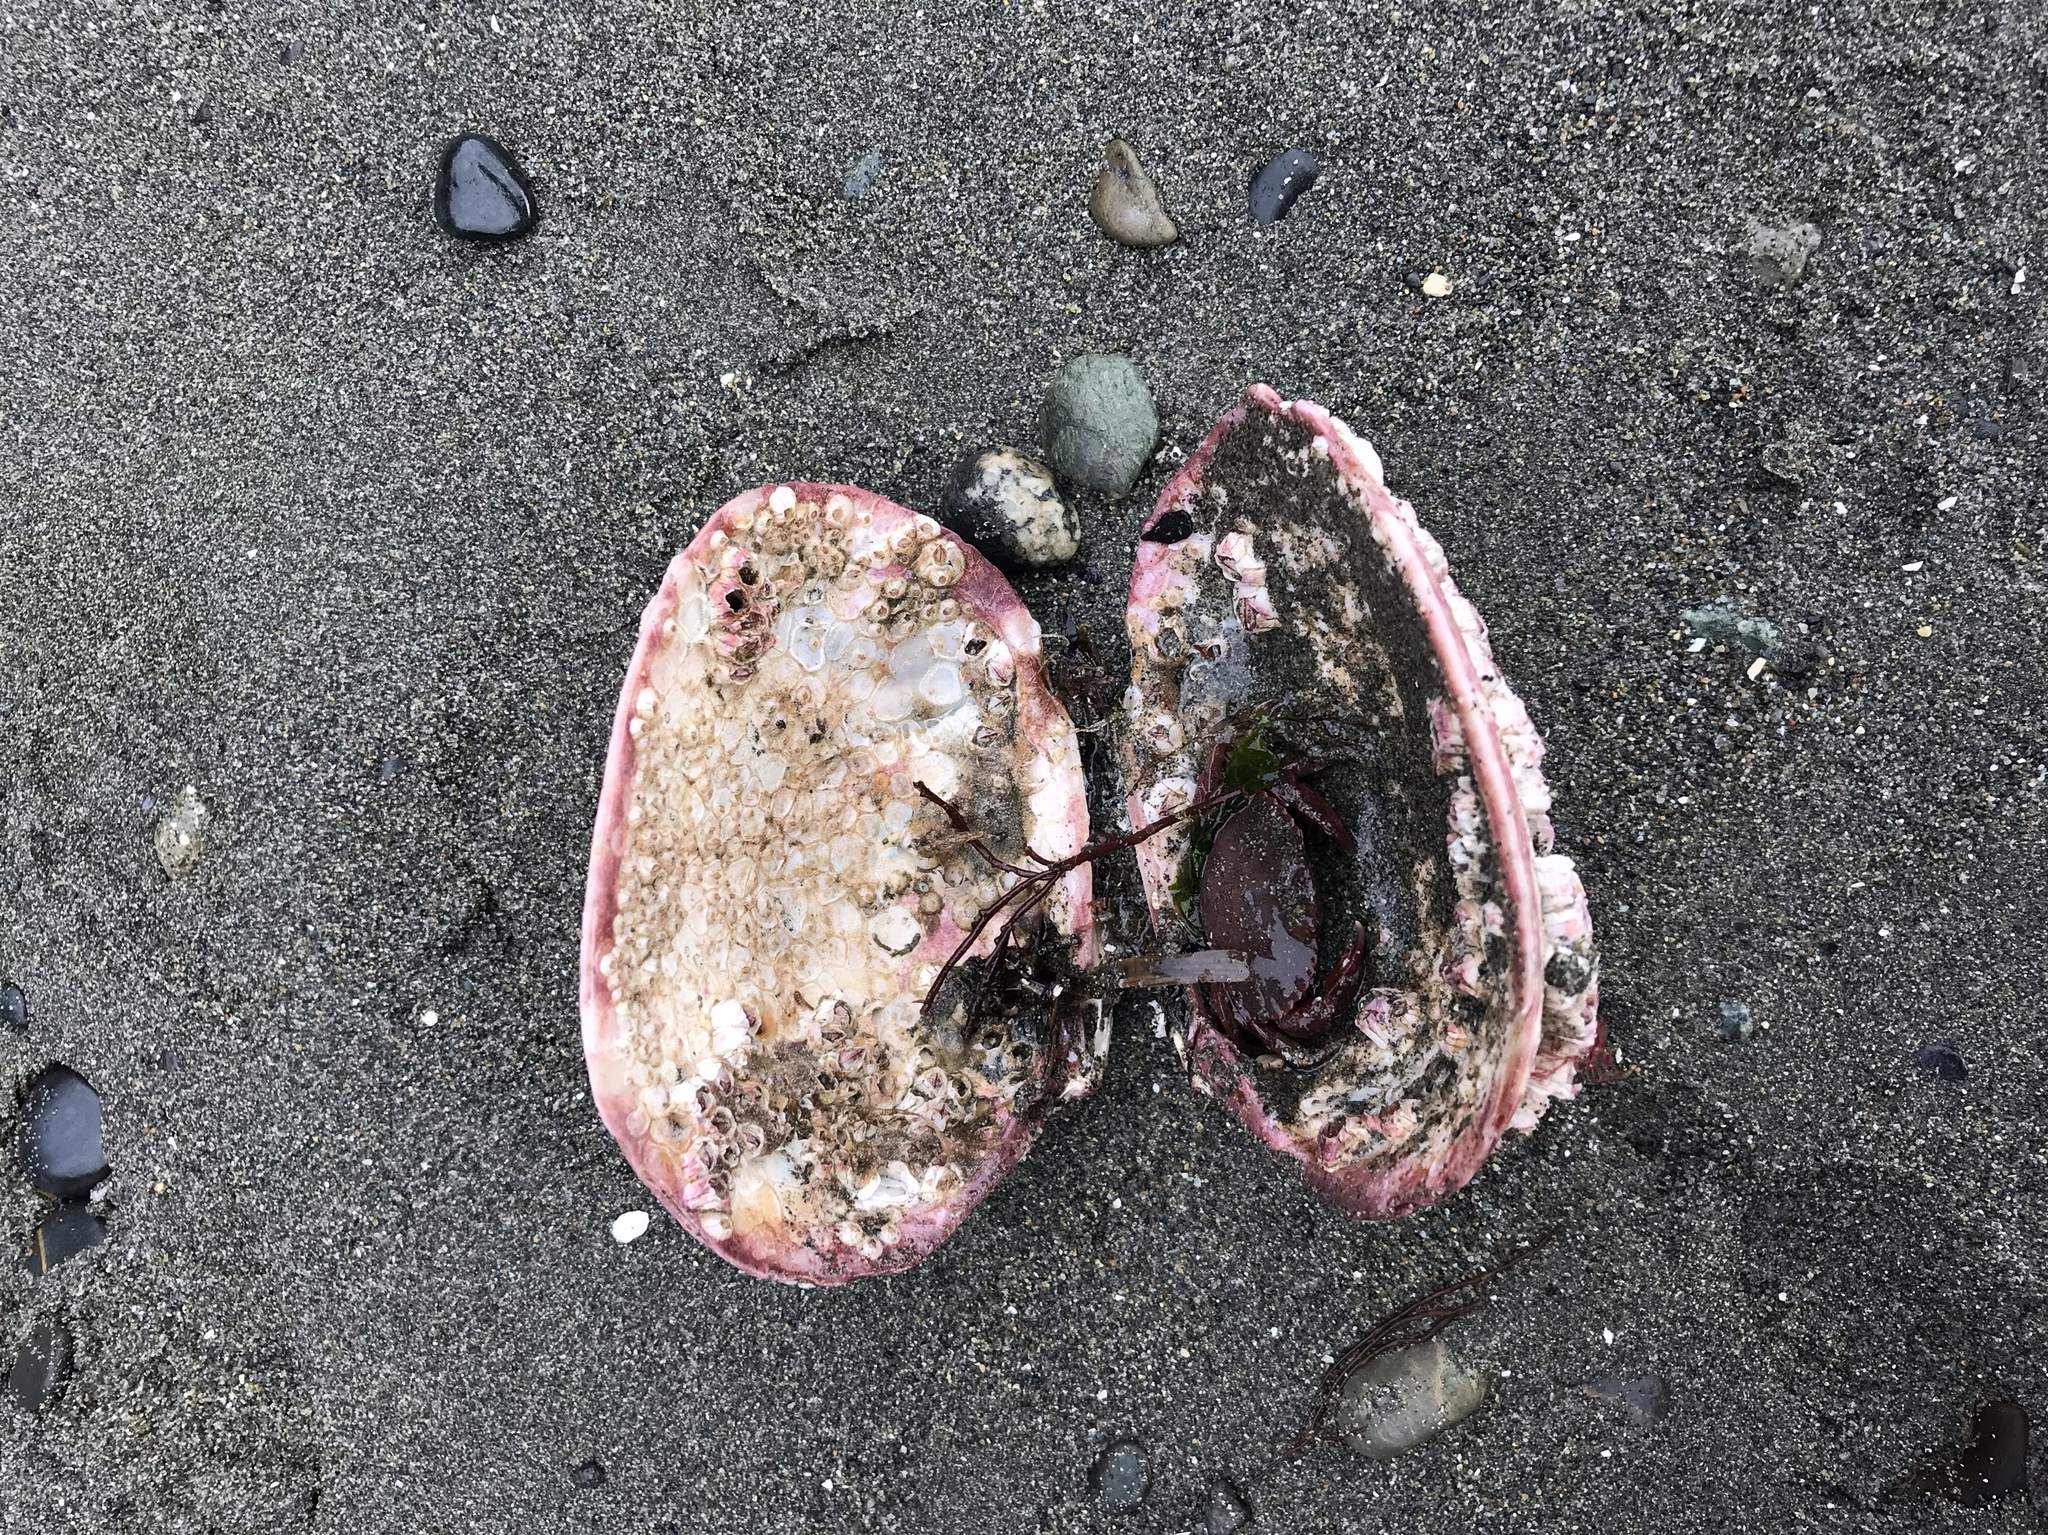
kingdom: Animalia
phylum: Mollusca
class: Bivalvia
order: Venerida
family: Veneridae
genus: Saxidomus
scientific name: Saxidomus gigantea
